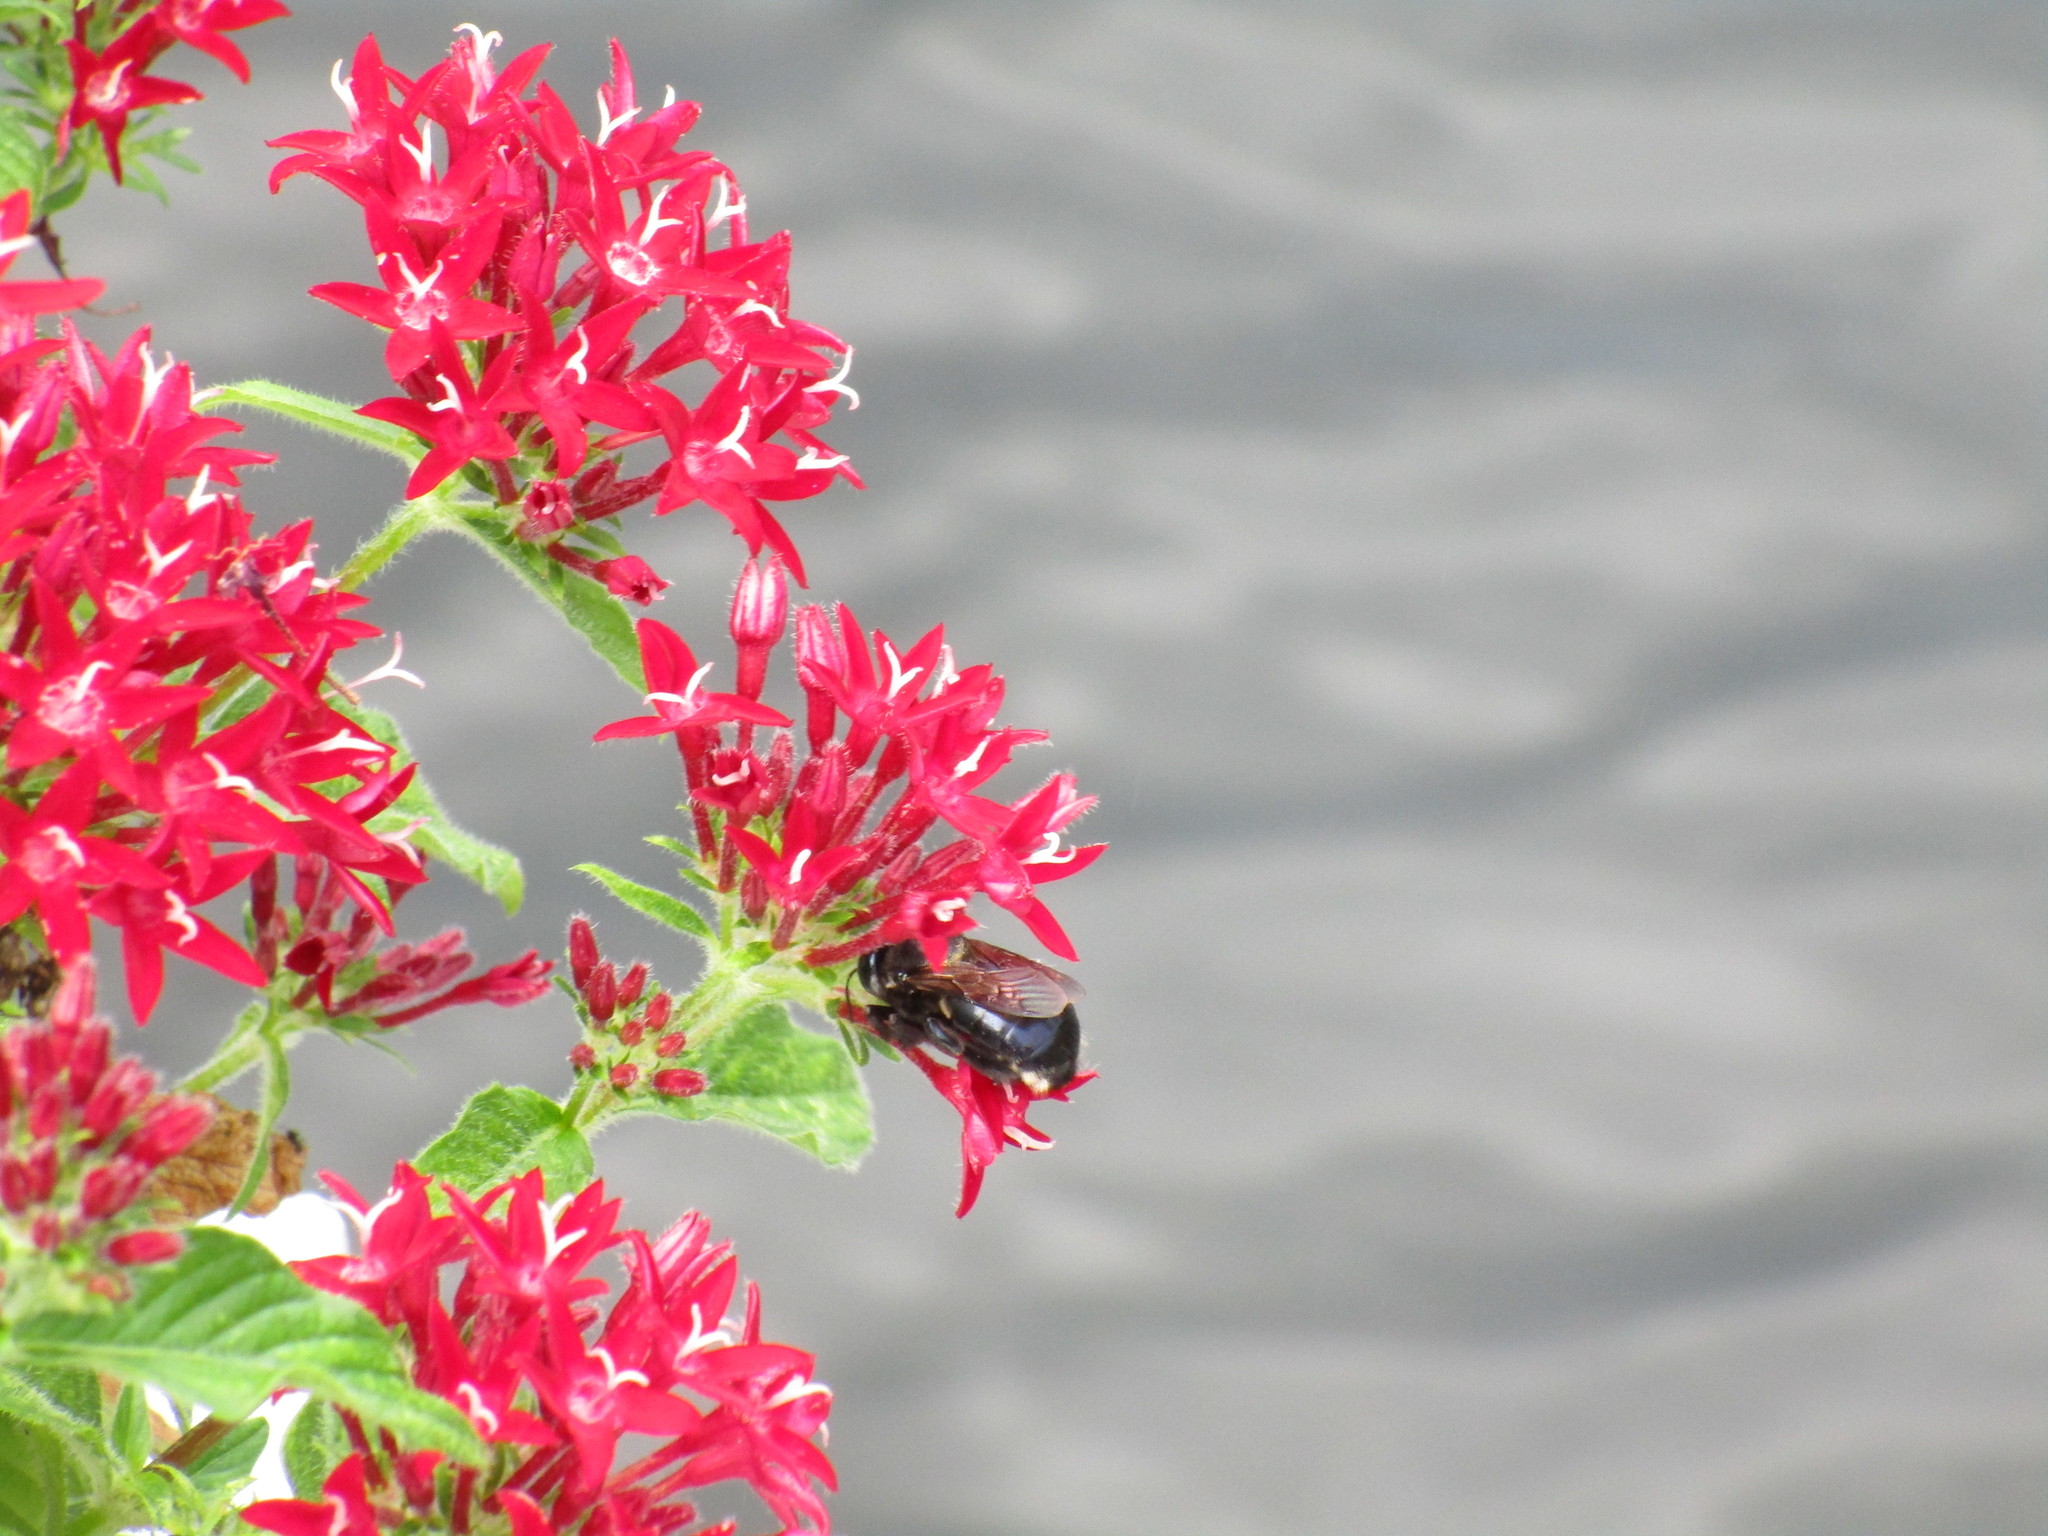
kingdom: Animalia
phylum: Arthropoda
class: Insecta
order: Hymenoptera
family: Apidae
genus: Xylocopa
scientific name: Xylocopa micans
